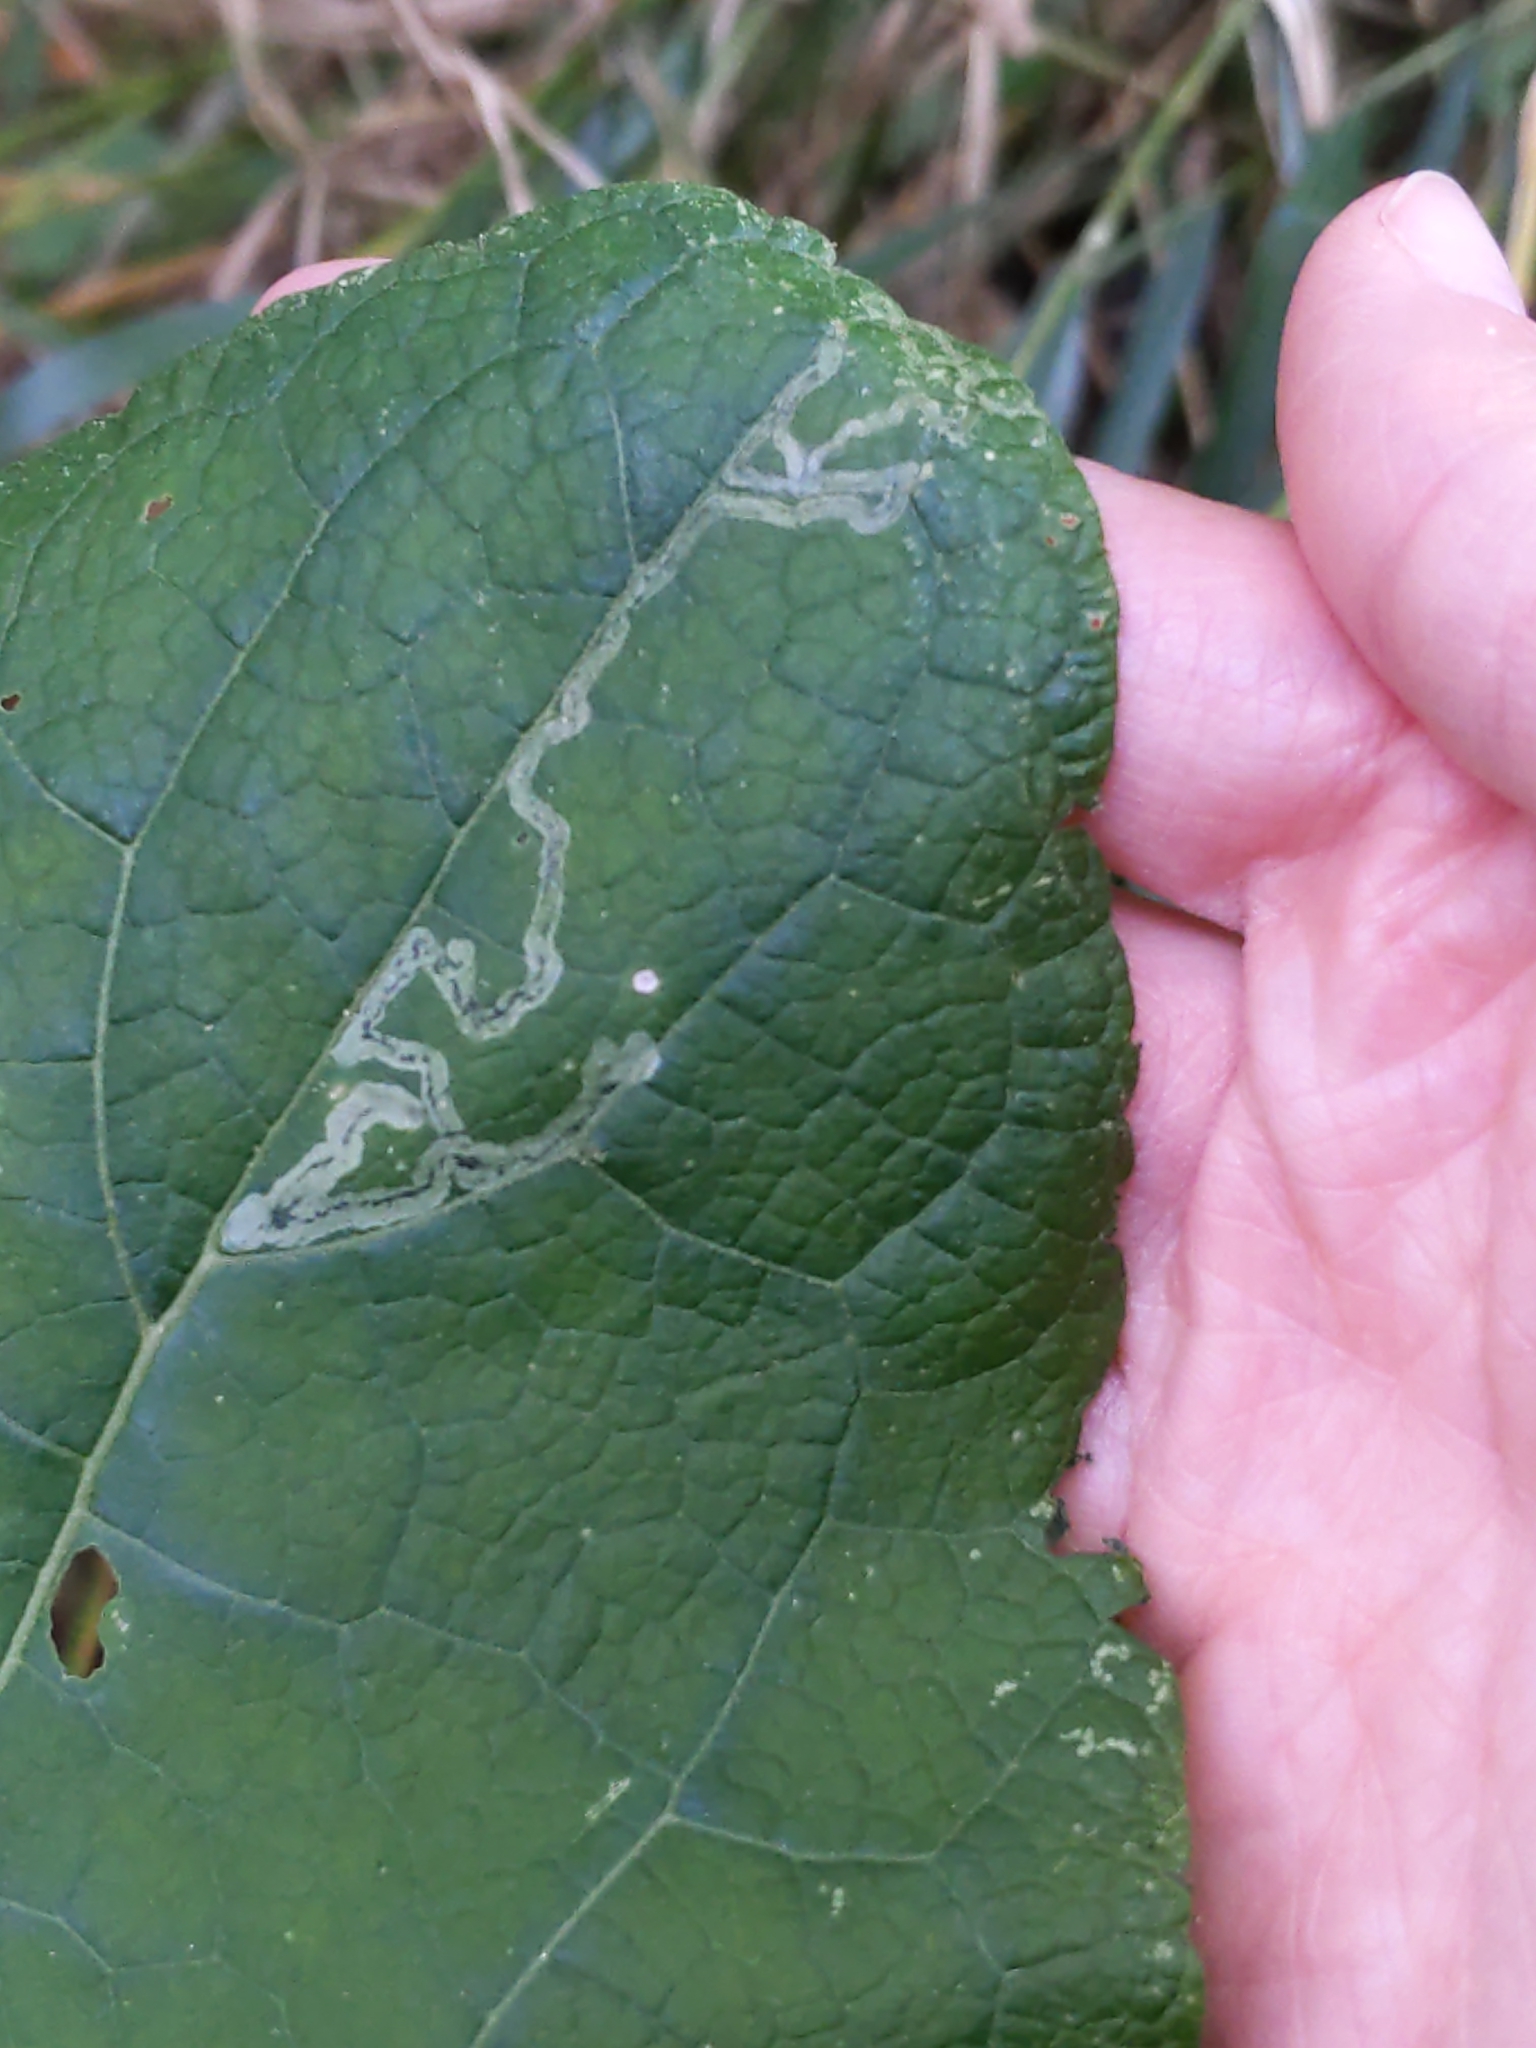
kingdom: Animalia
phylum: Arthropoda
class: Insecta
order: Diptera
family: Agromyzidae
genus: Liriomyza
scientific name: Liriomyza arctii
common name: Burdock leafminer
